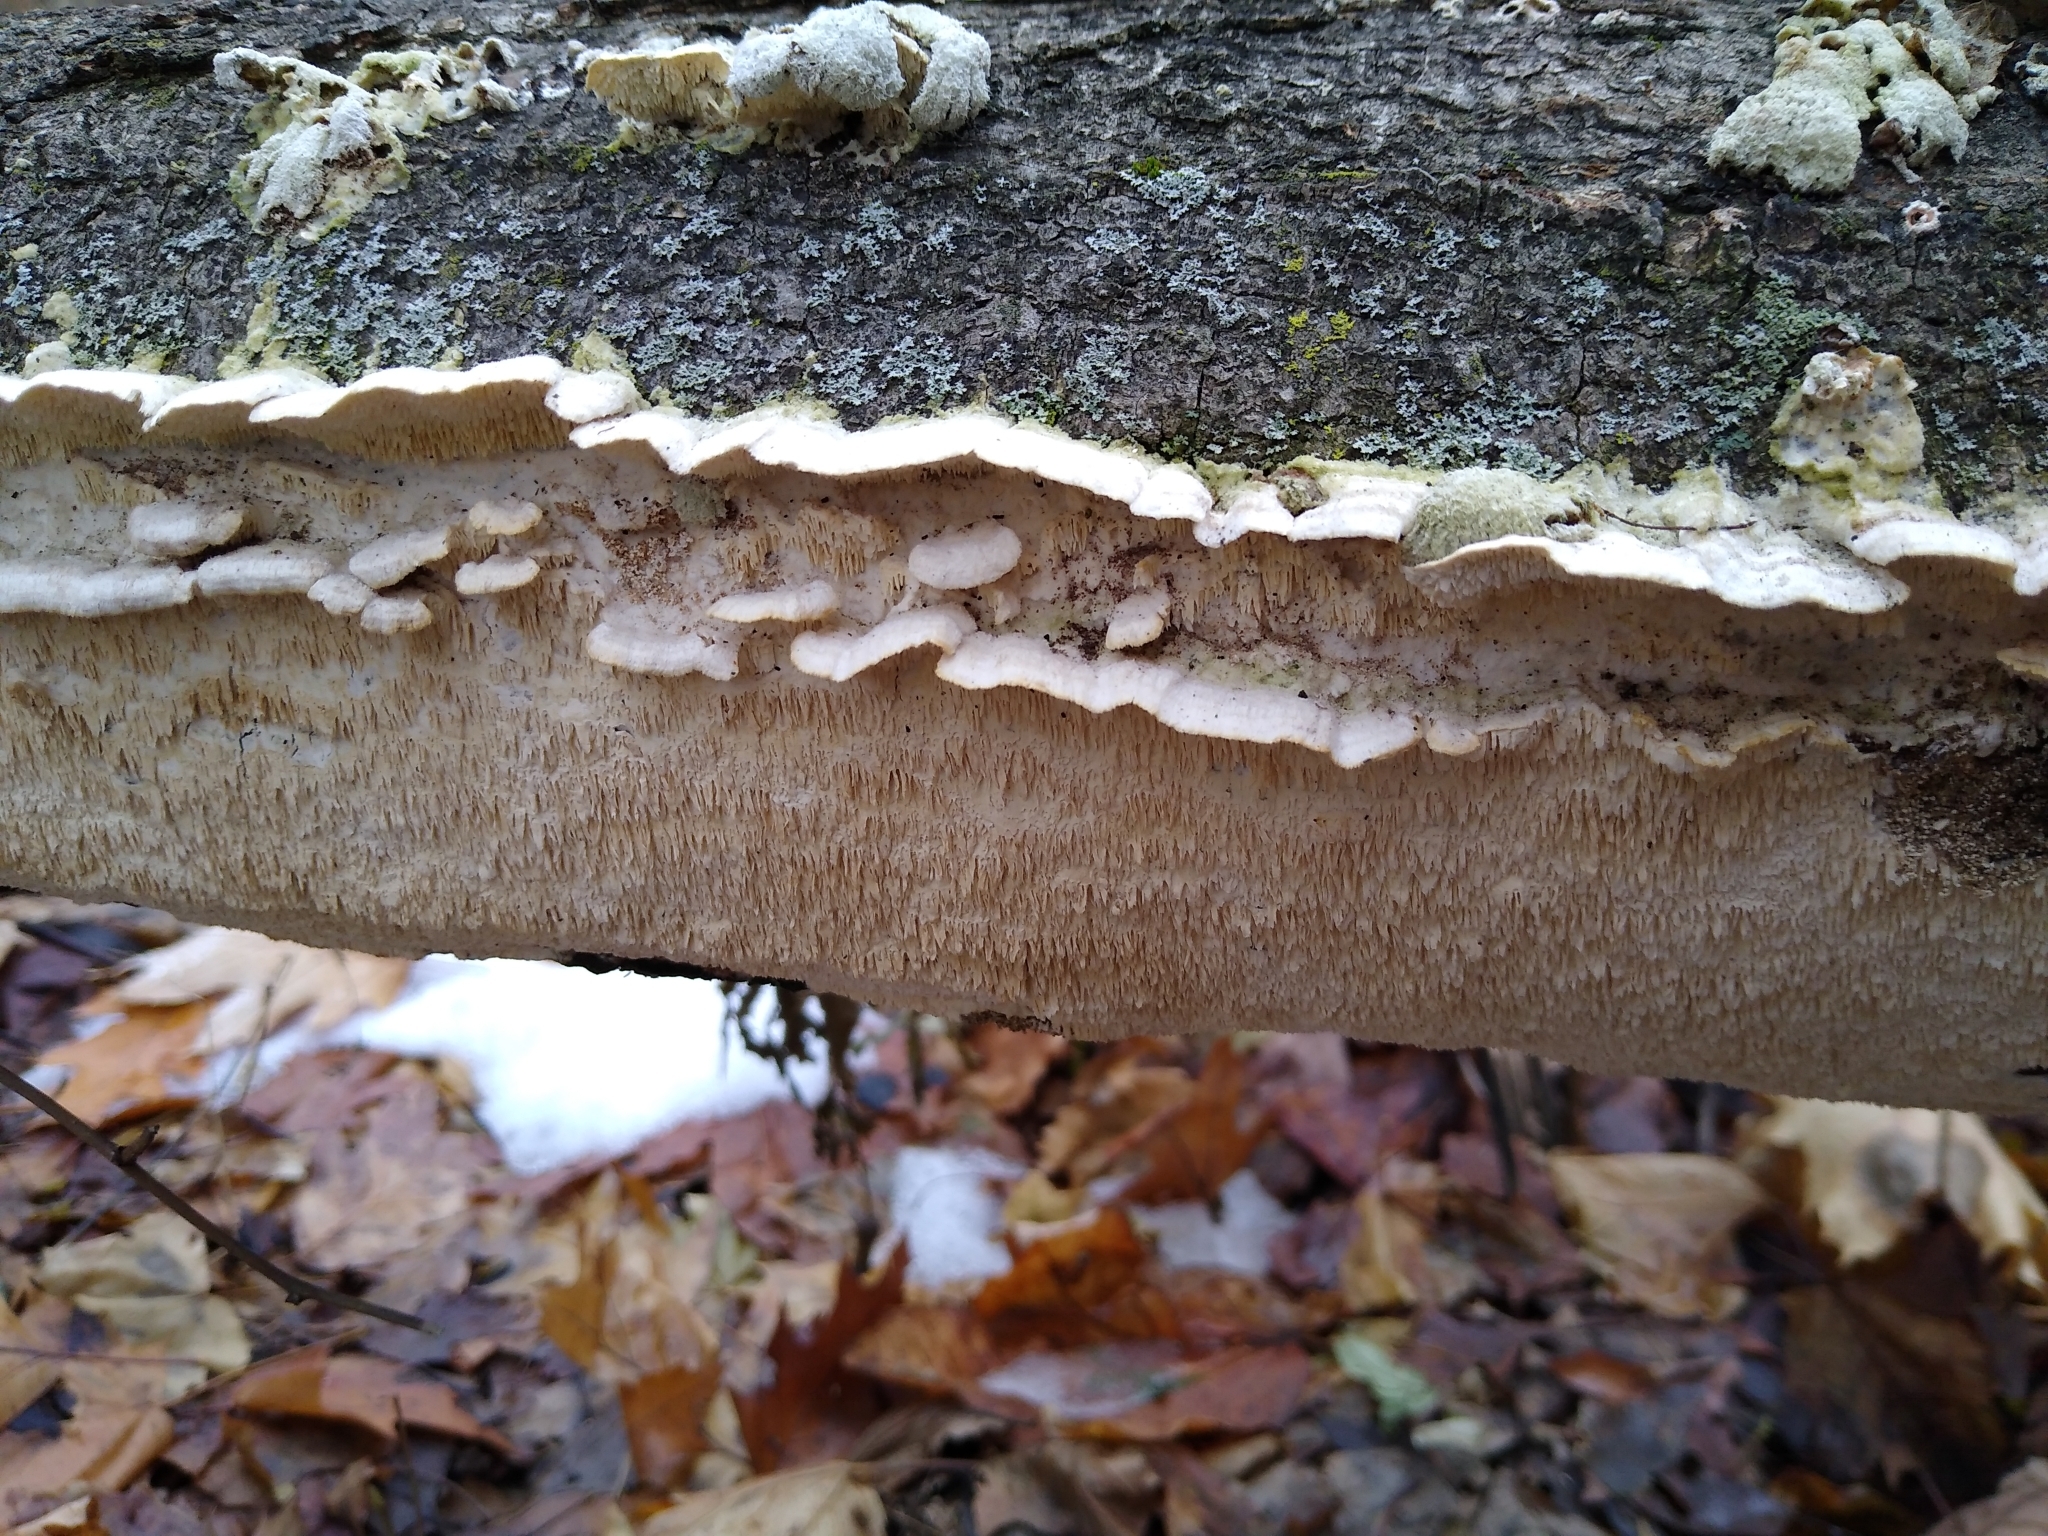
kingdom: Fungi
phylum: Basidiomycota
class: Agaricomycetes
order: Polyporales
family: Irpicaceae
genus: Irpex
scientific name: Irpex lacteus
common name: Milk-white toothed polypore
